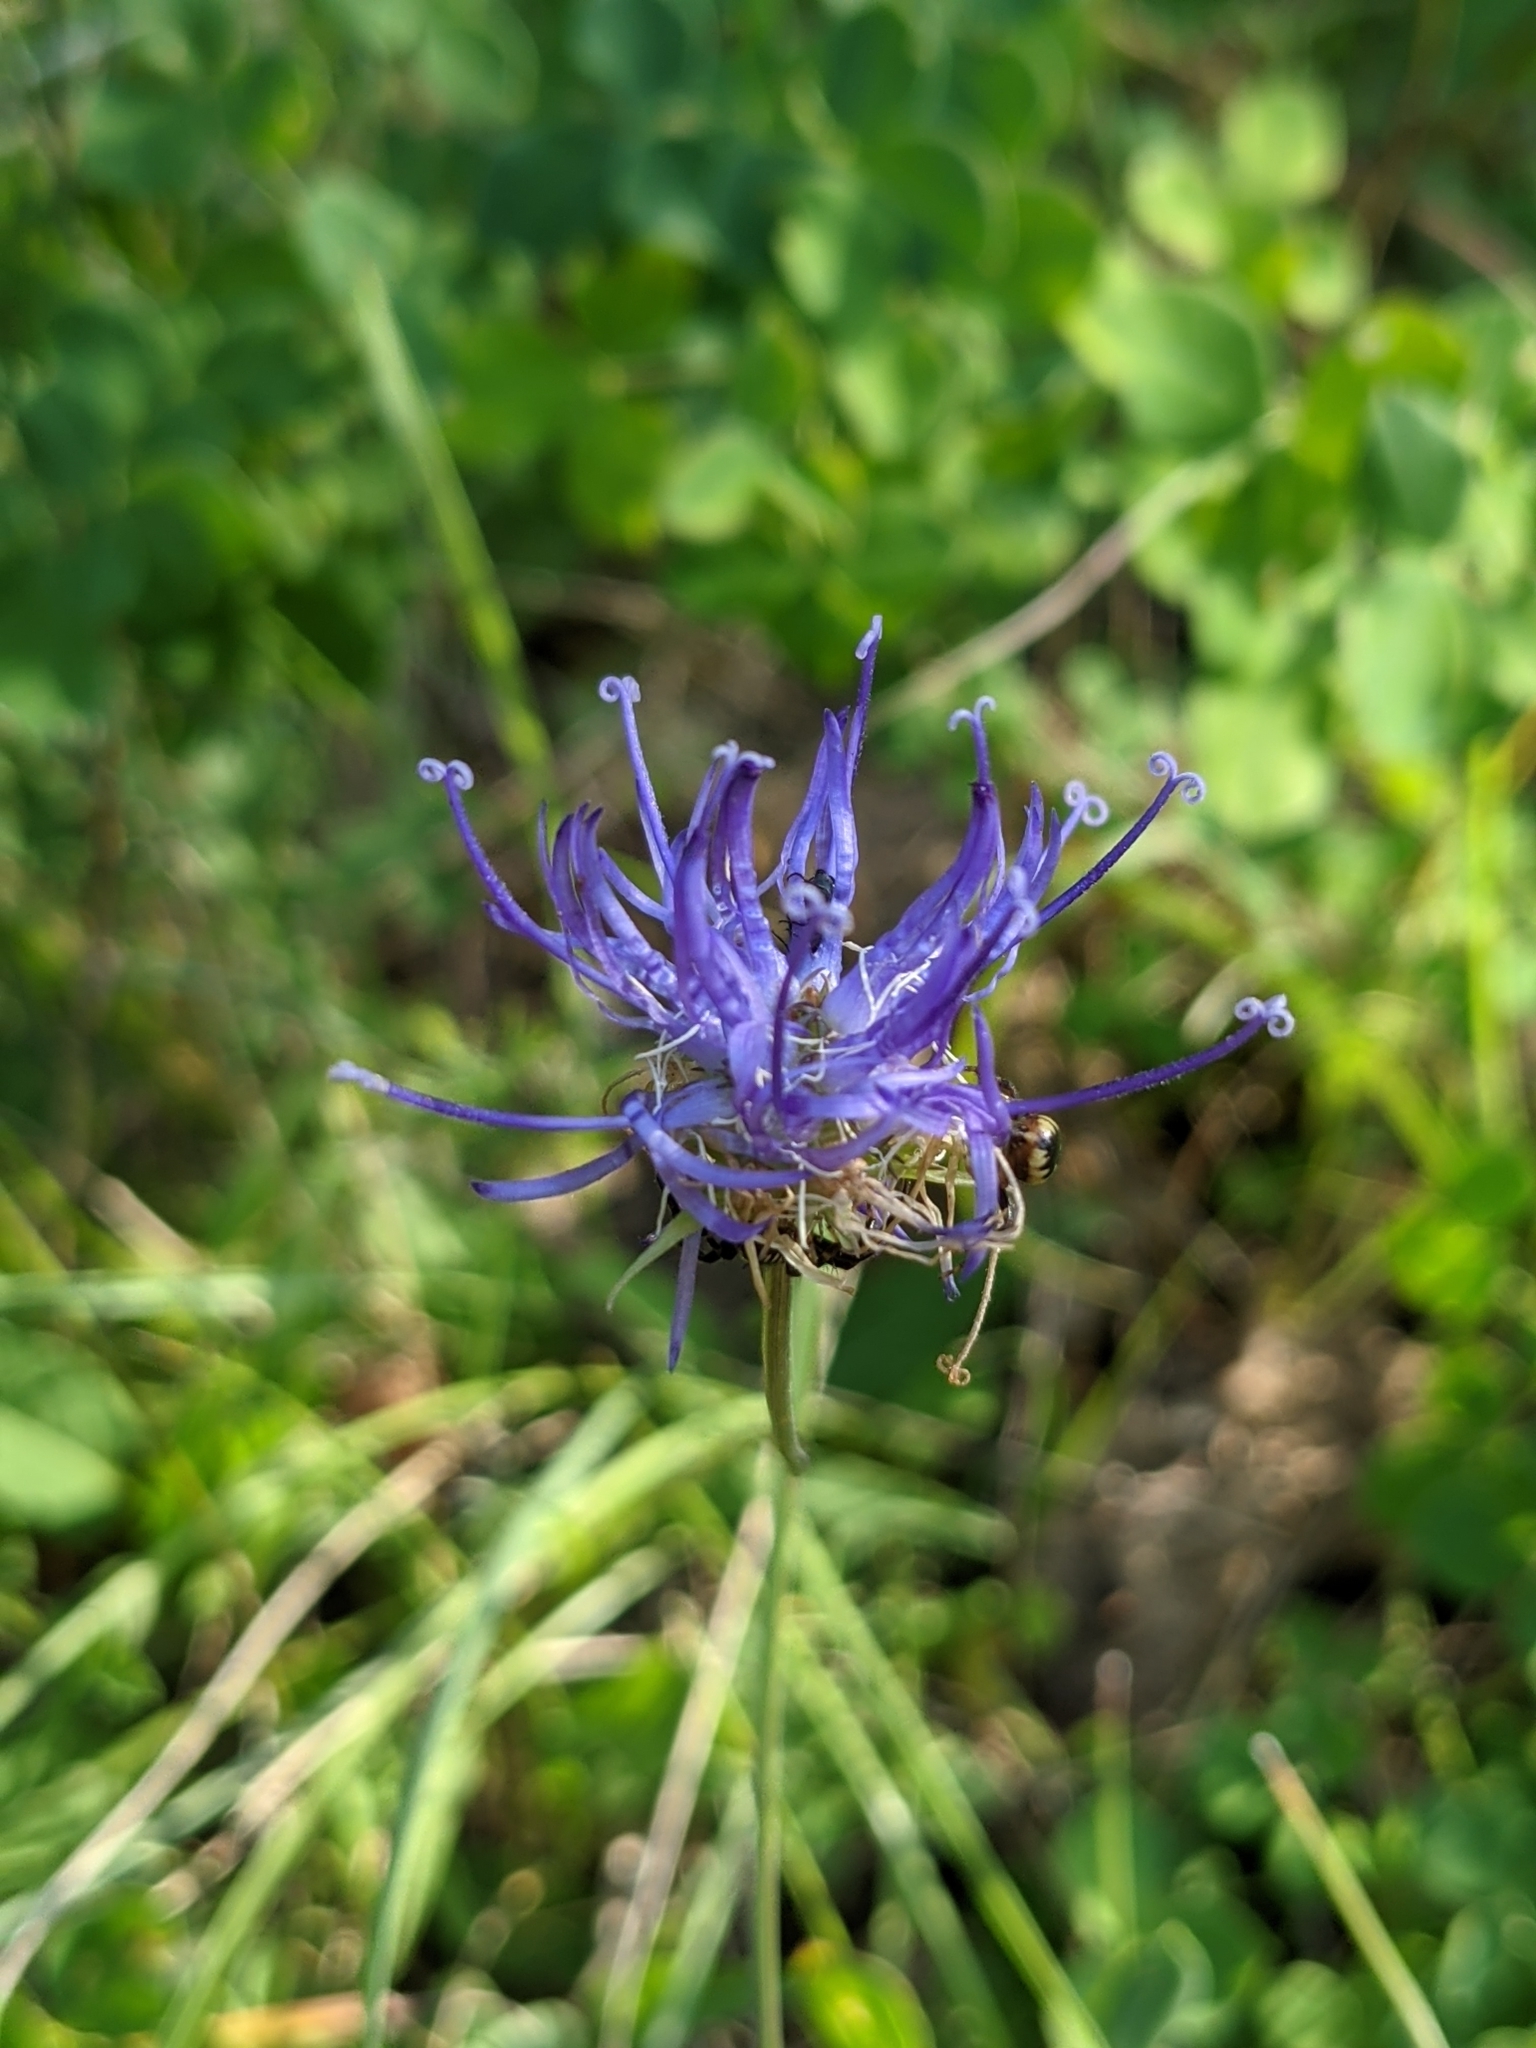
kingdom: Plantae
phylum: Tracheophyta
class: Magnoliopsida
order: Asterales
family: Campanulaceae
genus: Phyteuma
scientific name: Phyteuma orbiculare
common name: Round-headed rampion
